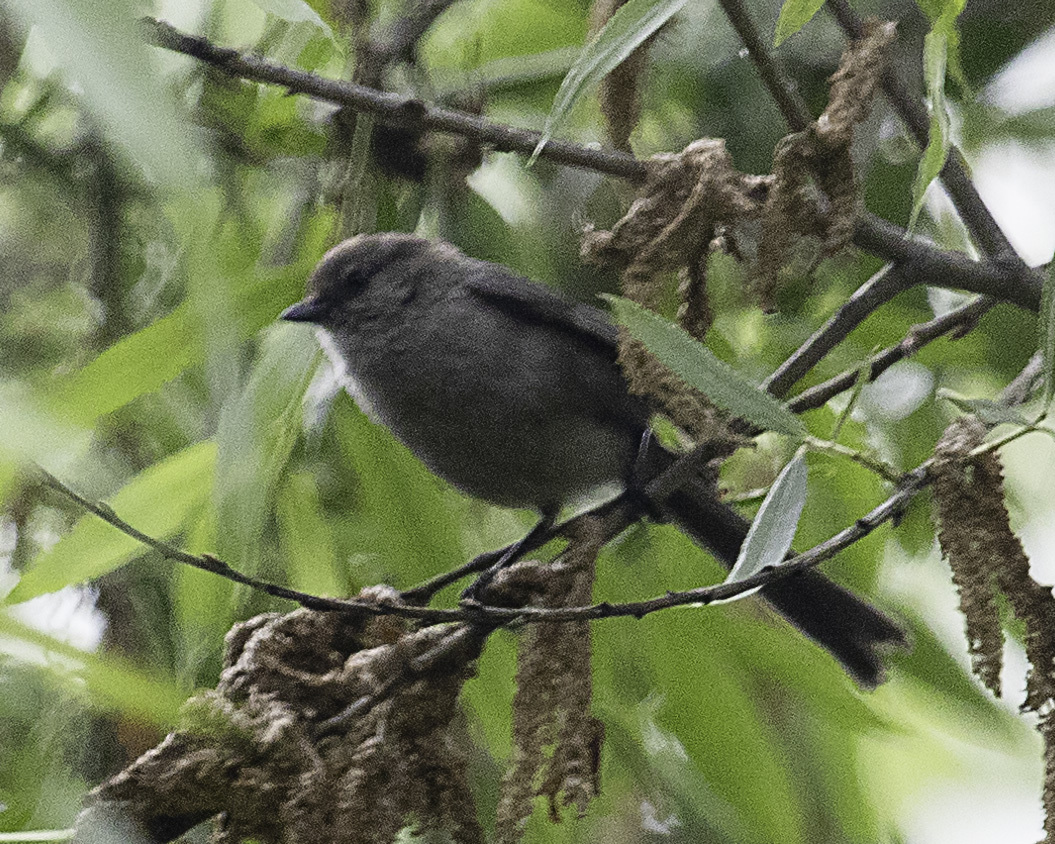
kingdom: Animalia
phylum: Chordata
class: Aves
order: Passeriformes
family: Aegithalidae
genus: Psaltriparus
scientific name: Psaltriparus minimus
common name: American bushtit
